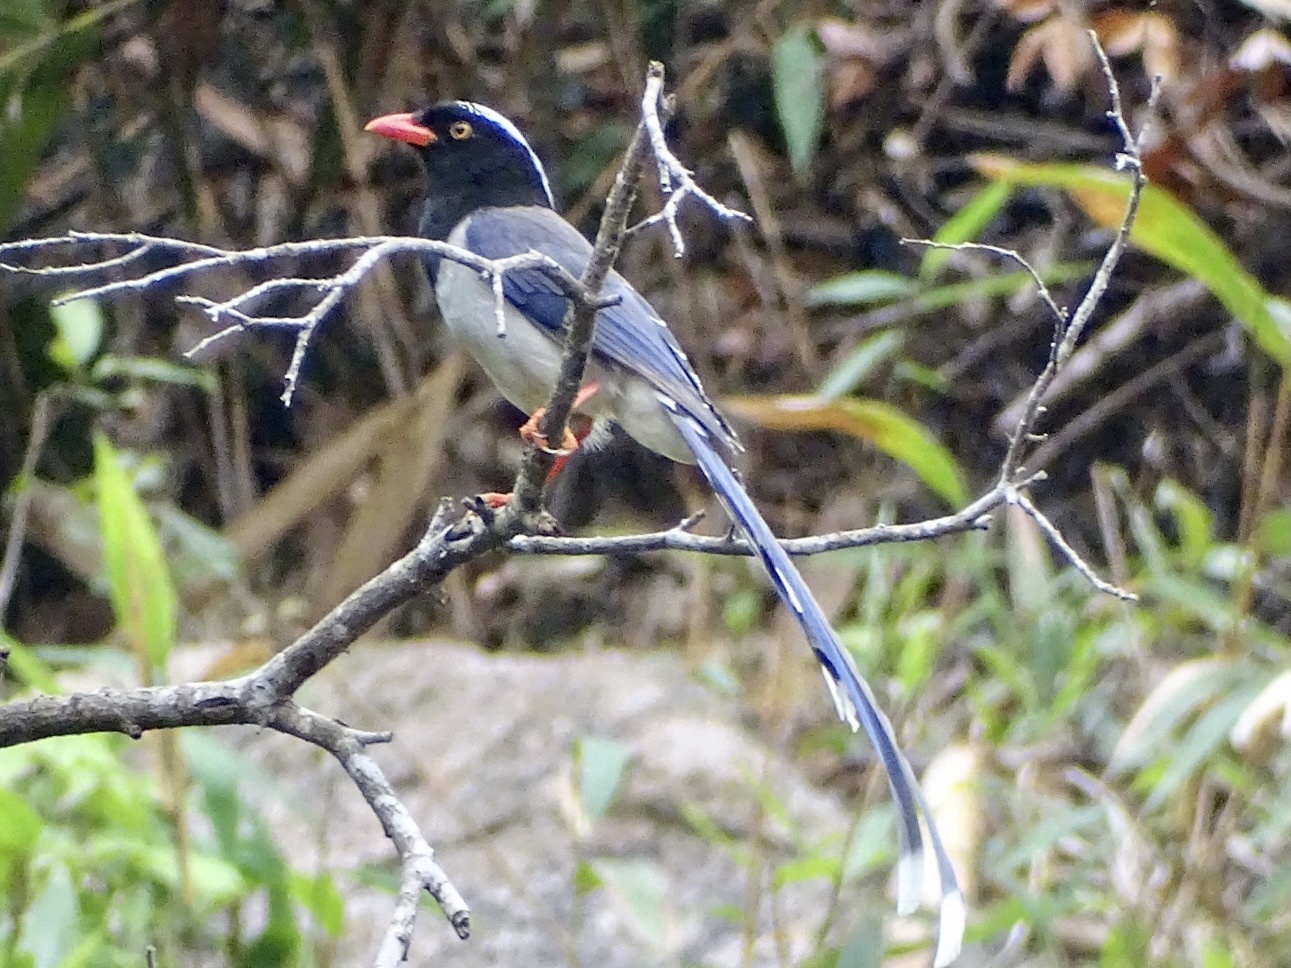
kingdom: Animalia
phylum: Chordata
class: Aves
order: Passeriformes
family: Corvidae
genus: Urocissa
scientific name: Urocissa erythroryncha
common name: Red-billed blue magpie
